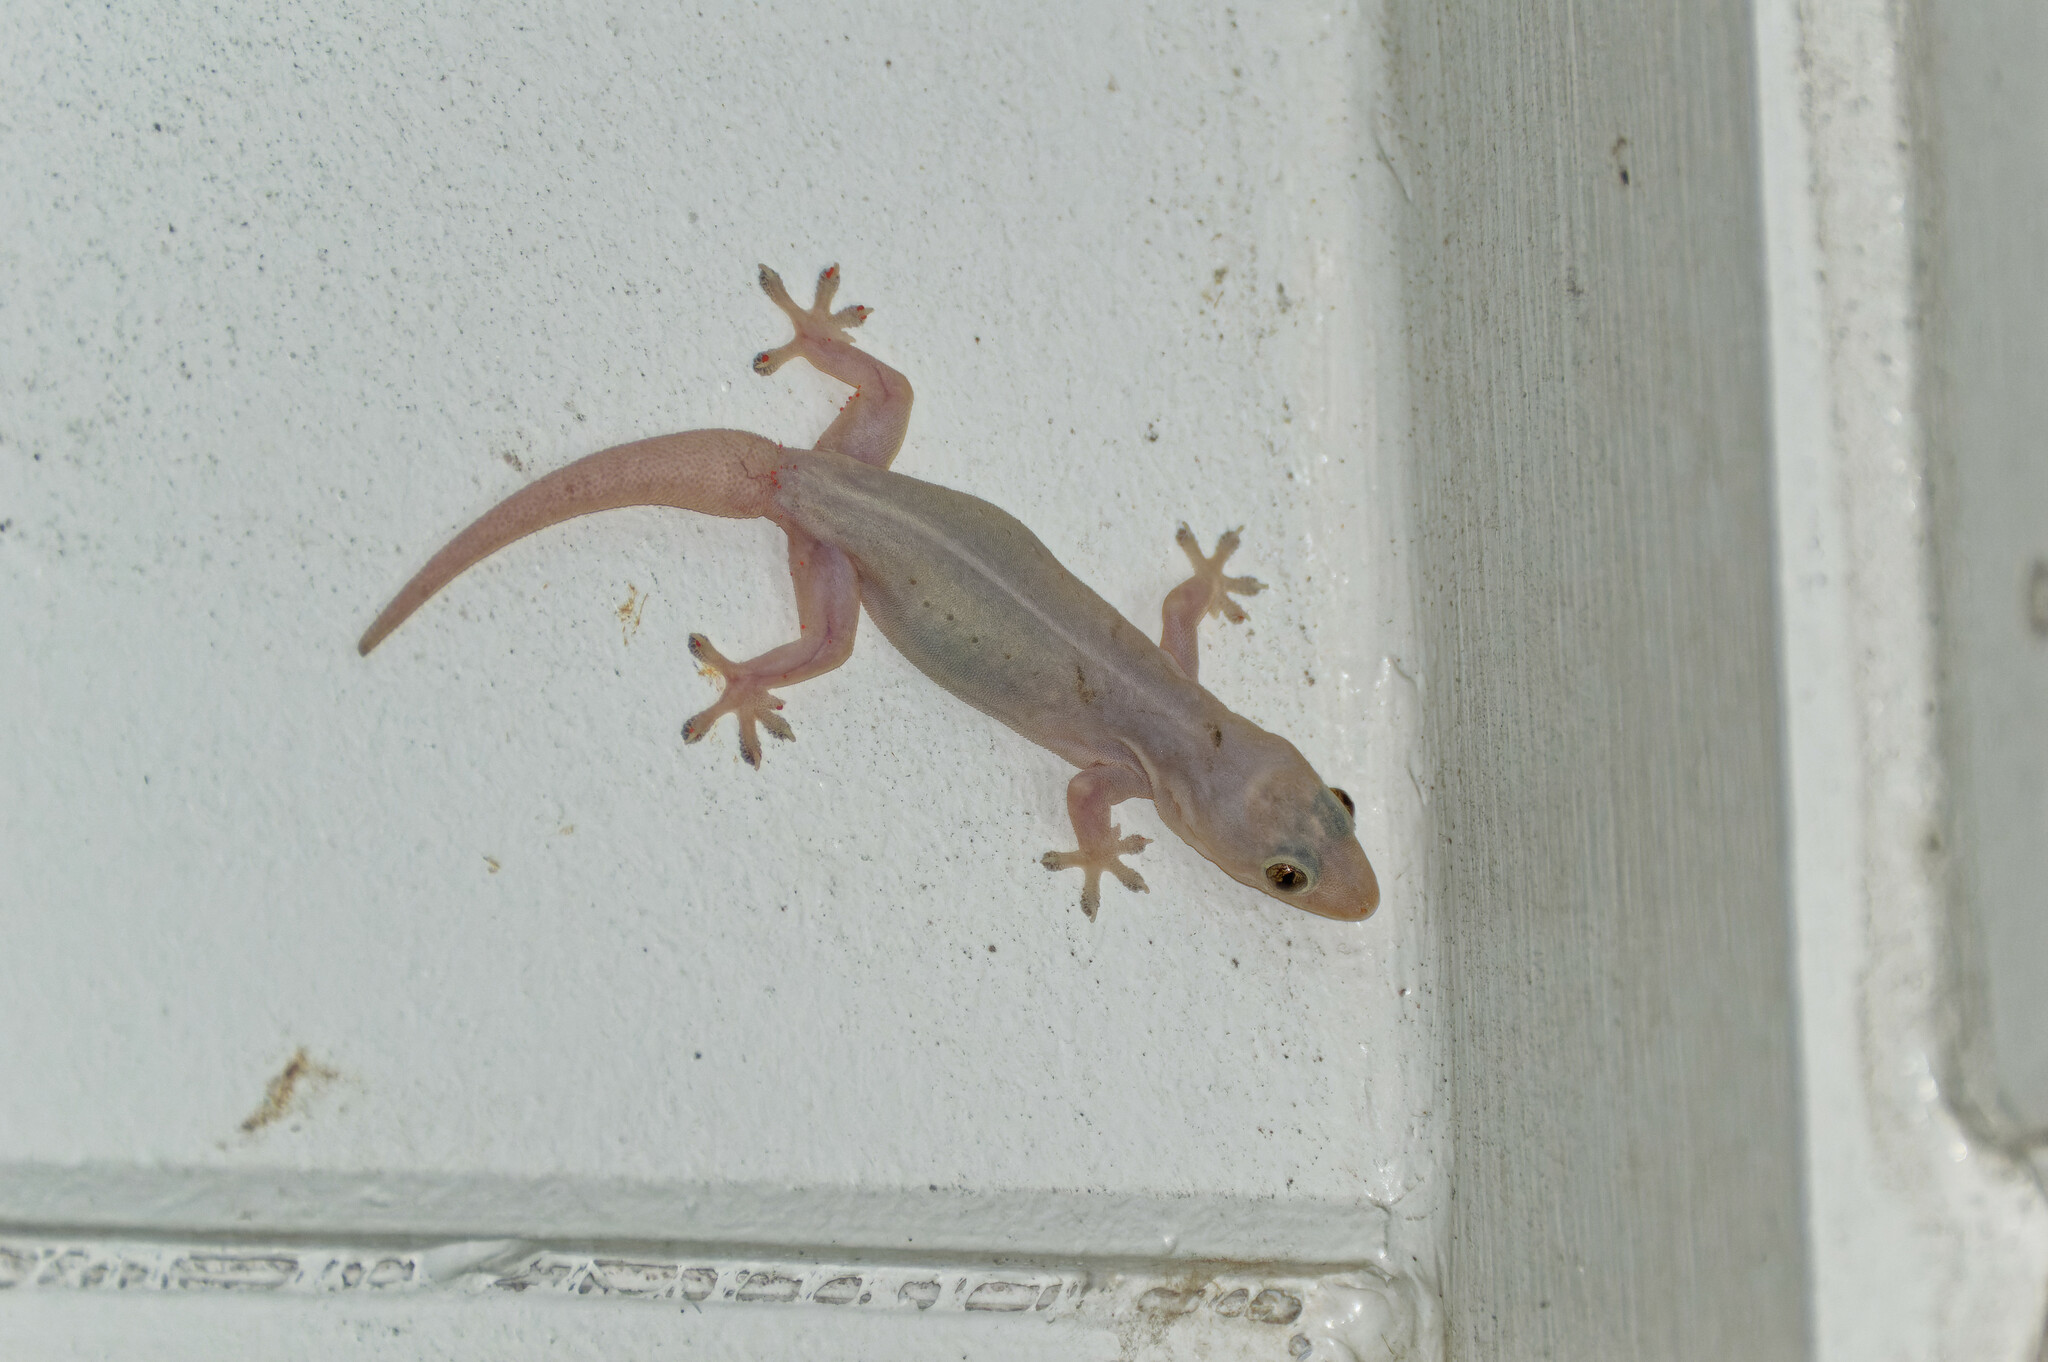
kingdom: Animalia
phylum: Chordata
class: Squamata
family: Gekkonidae
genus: Hemidactylus
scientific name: Hemidactylus frenatus
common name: Common house gecko
